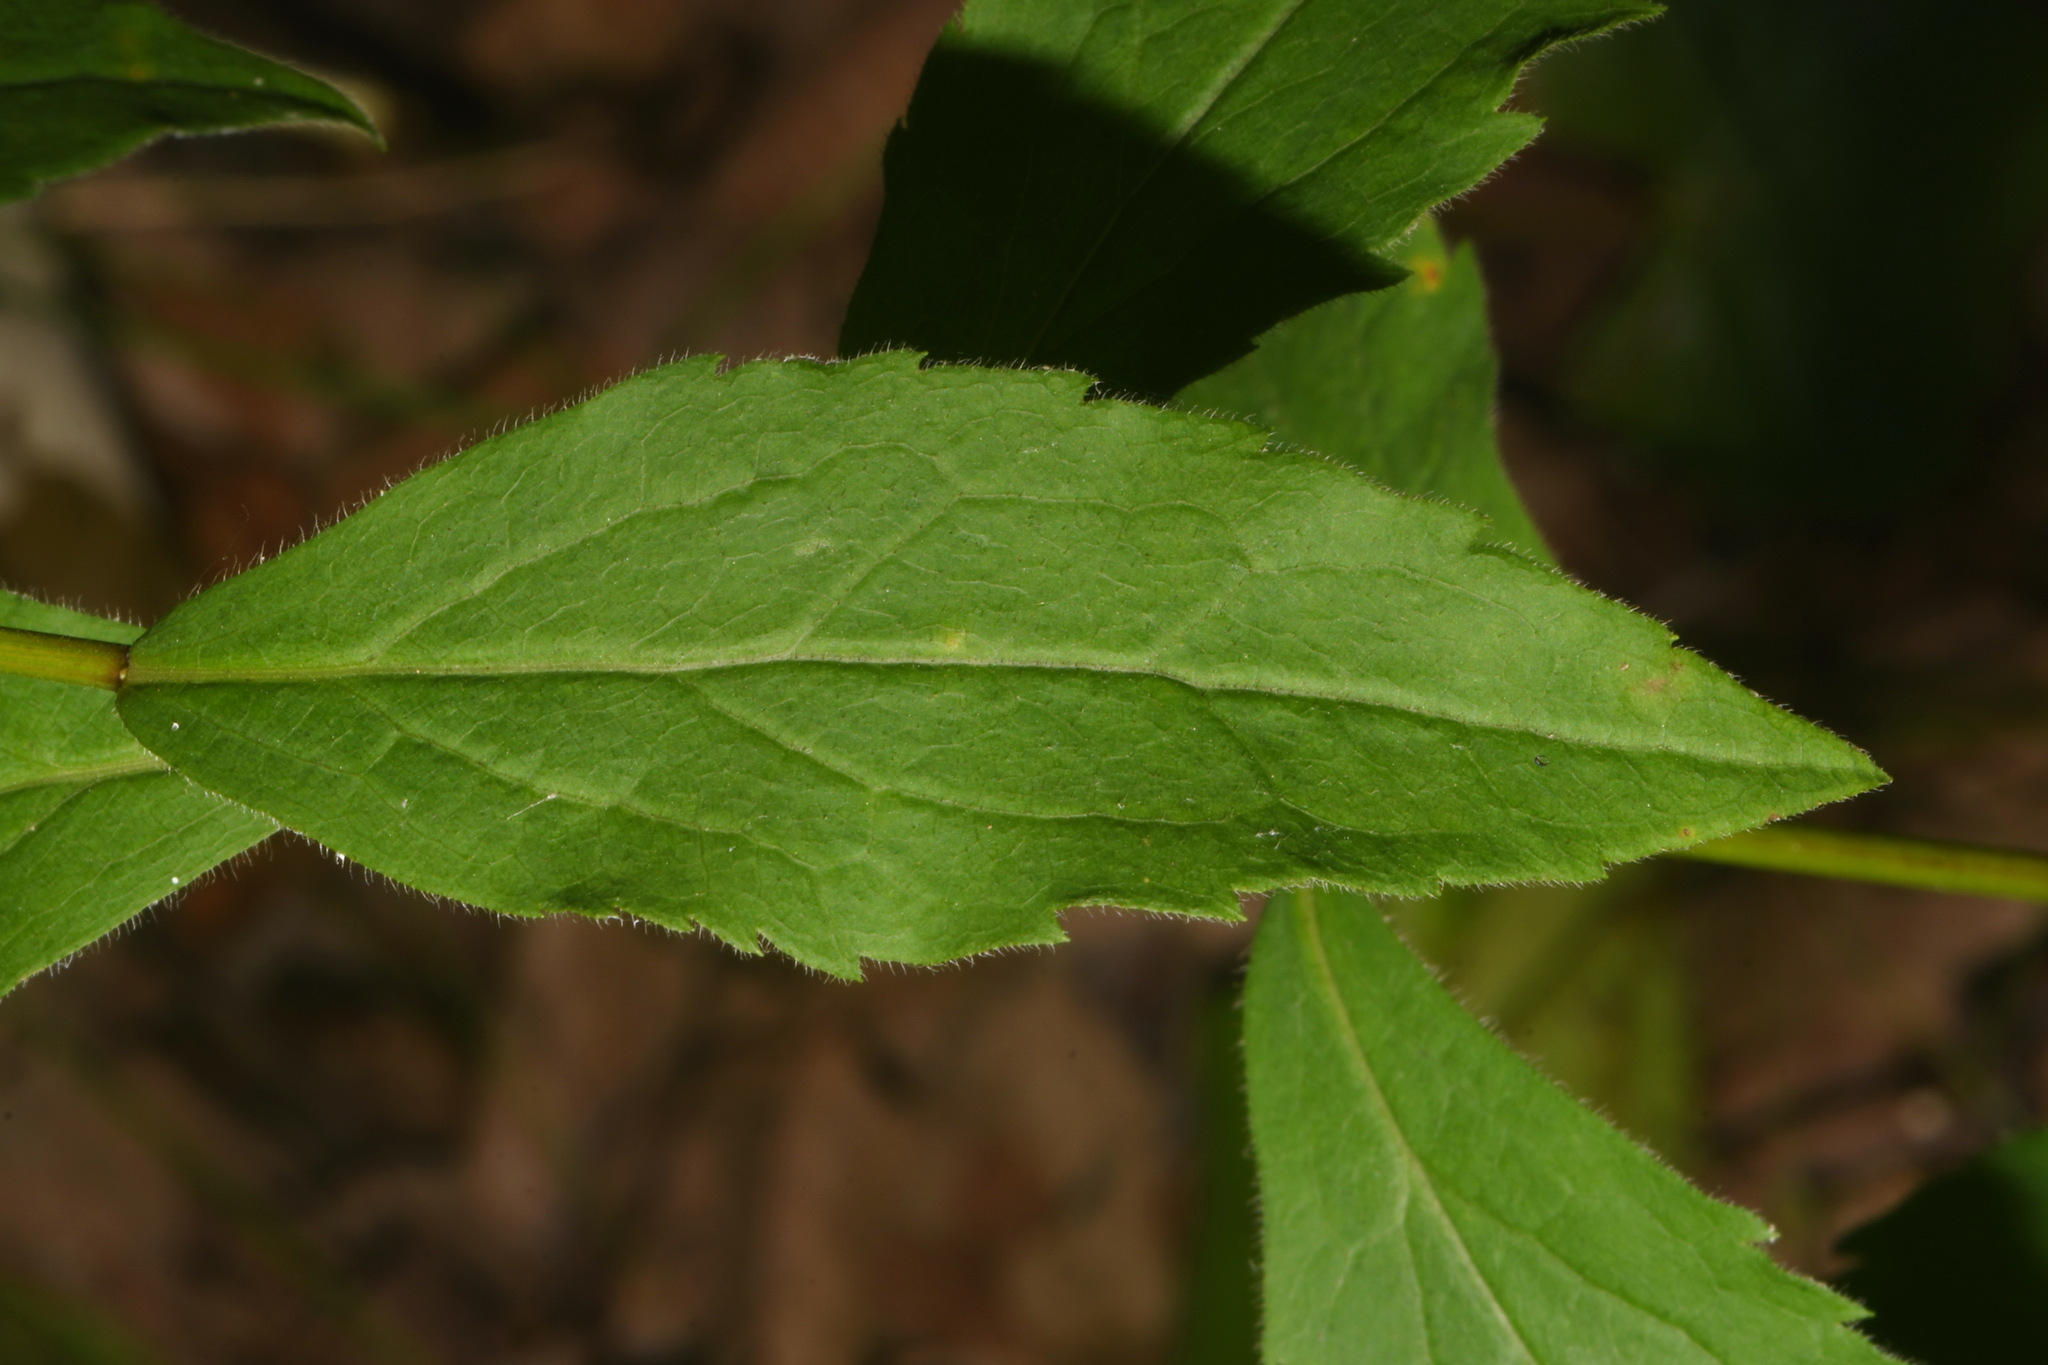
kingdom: Plantae
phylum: Tracheophyta
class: Magnoliopsida
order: Asterales
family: Asteraceae
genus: Solidago
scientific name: Solidago ulmifolia
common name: Elm-leaf goldenrod
